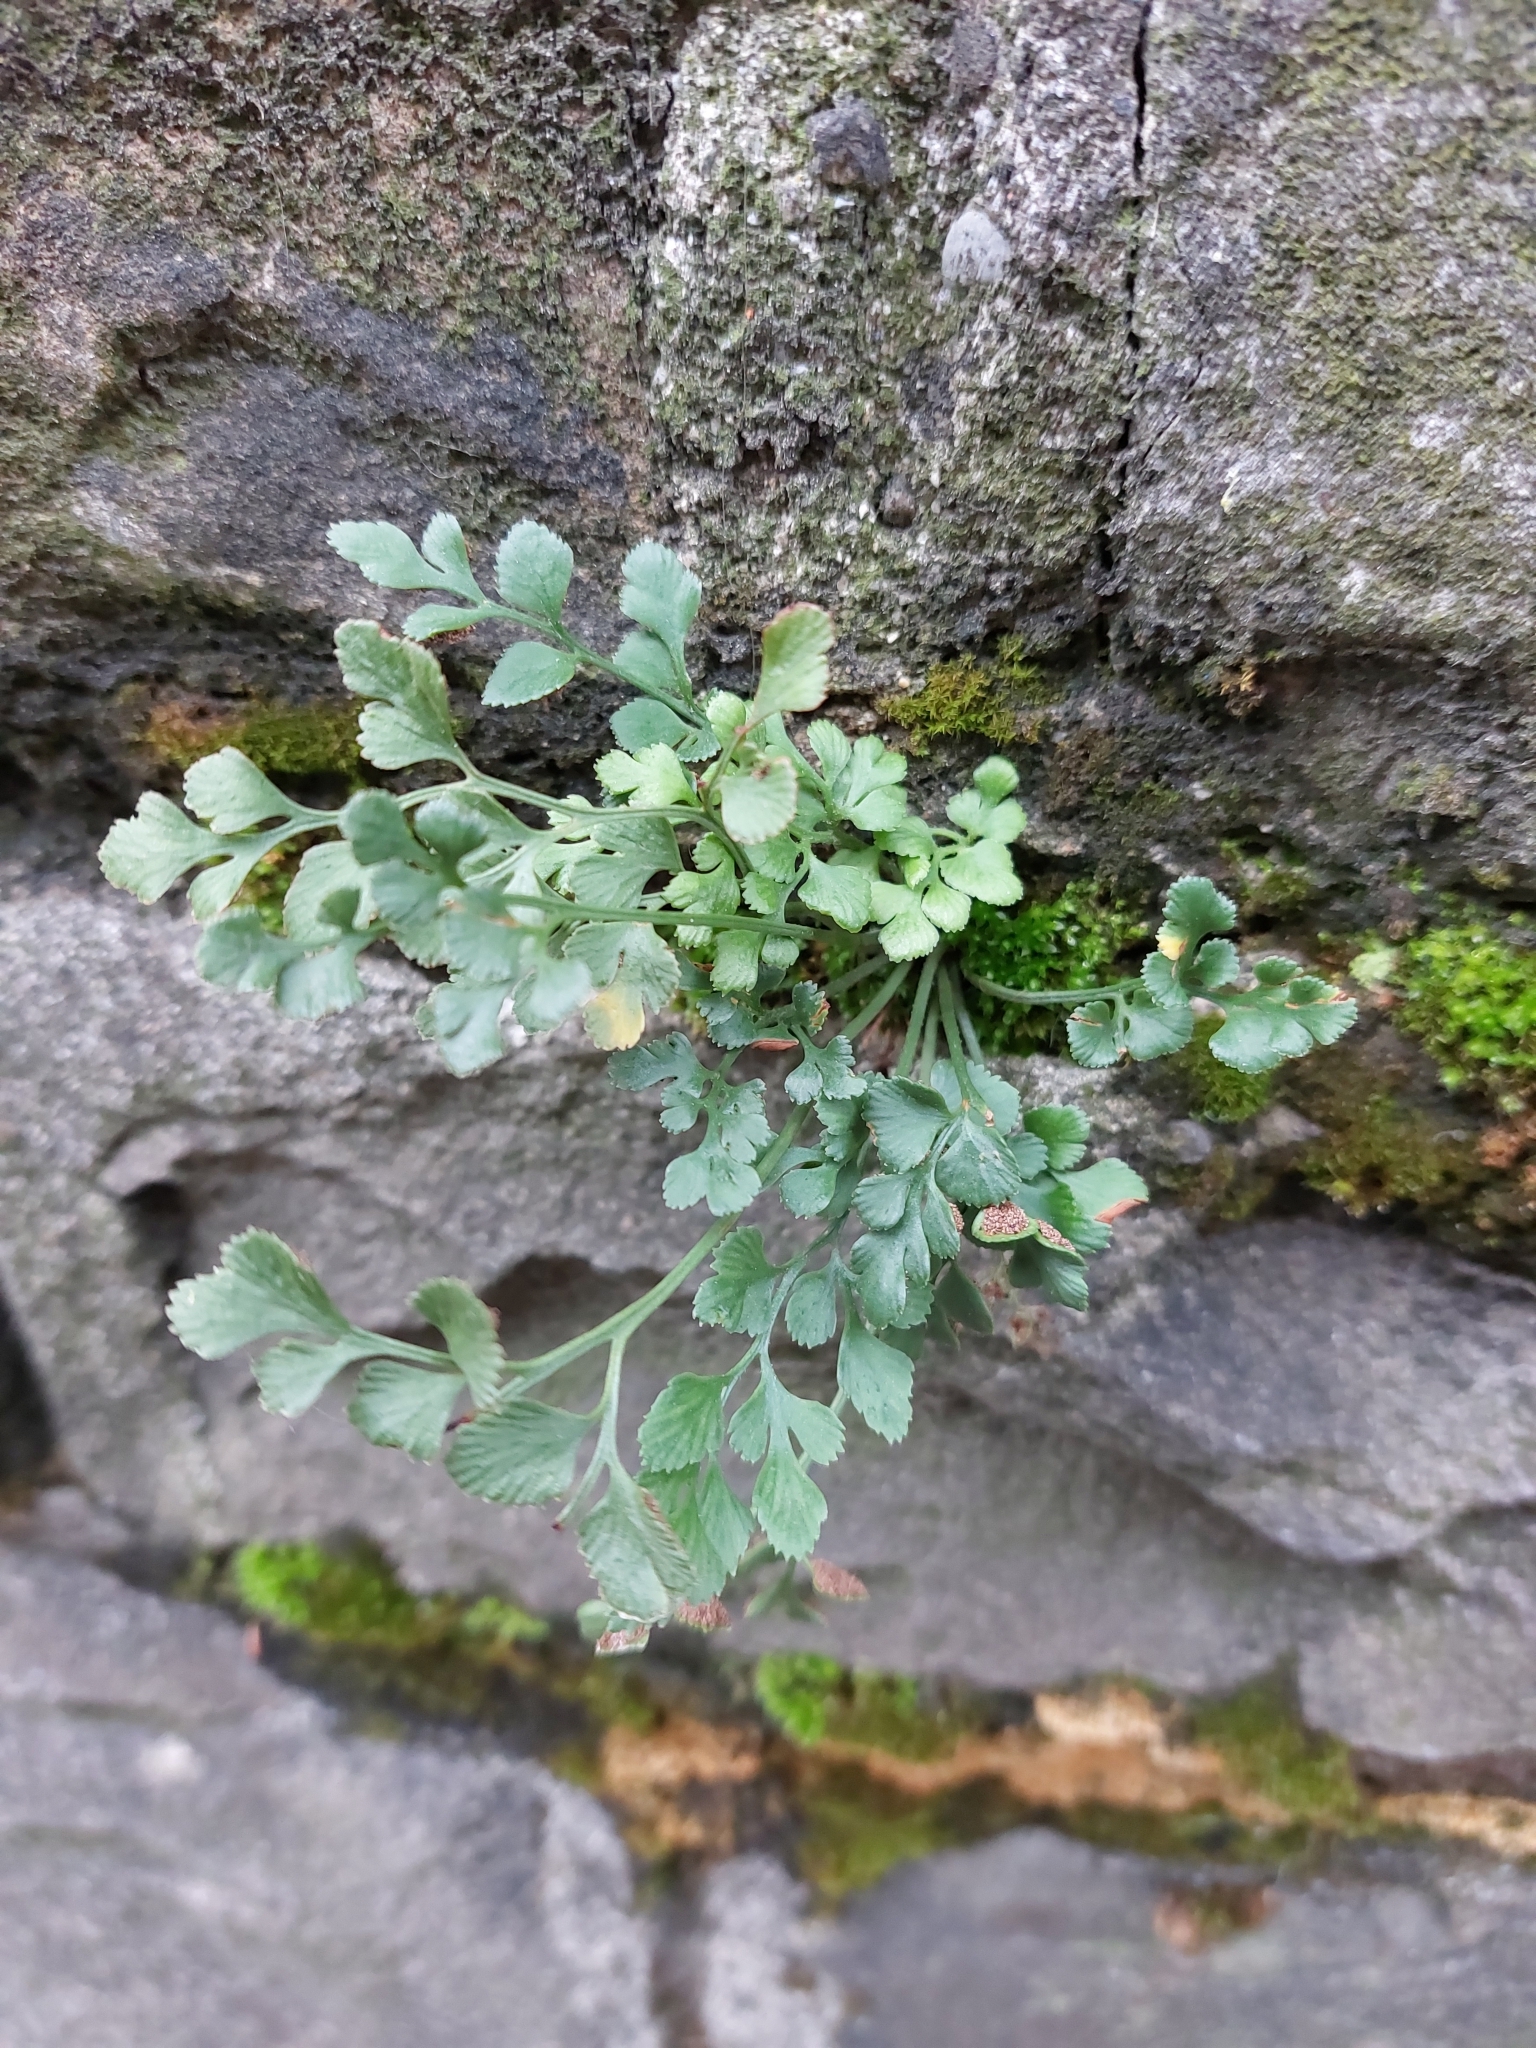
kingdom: Plantae
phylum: Tracheophyta
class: Polypodiopsida
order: Polypodiales
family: Aspleniaceae
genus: Asplenium
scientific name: Asplenium ruta-muraria
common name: Wall-rue
